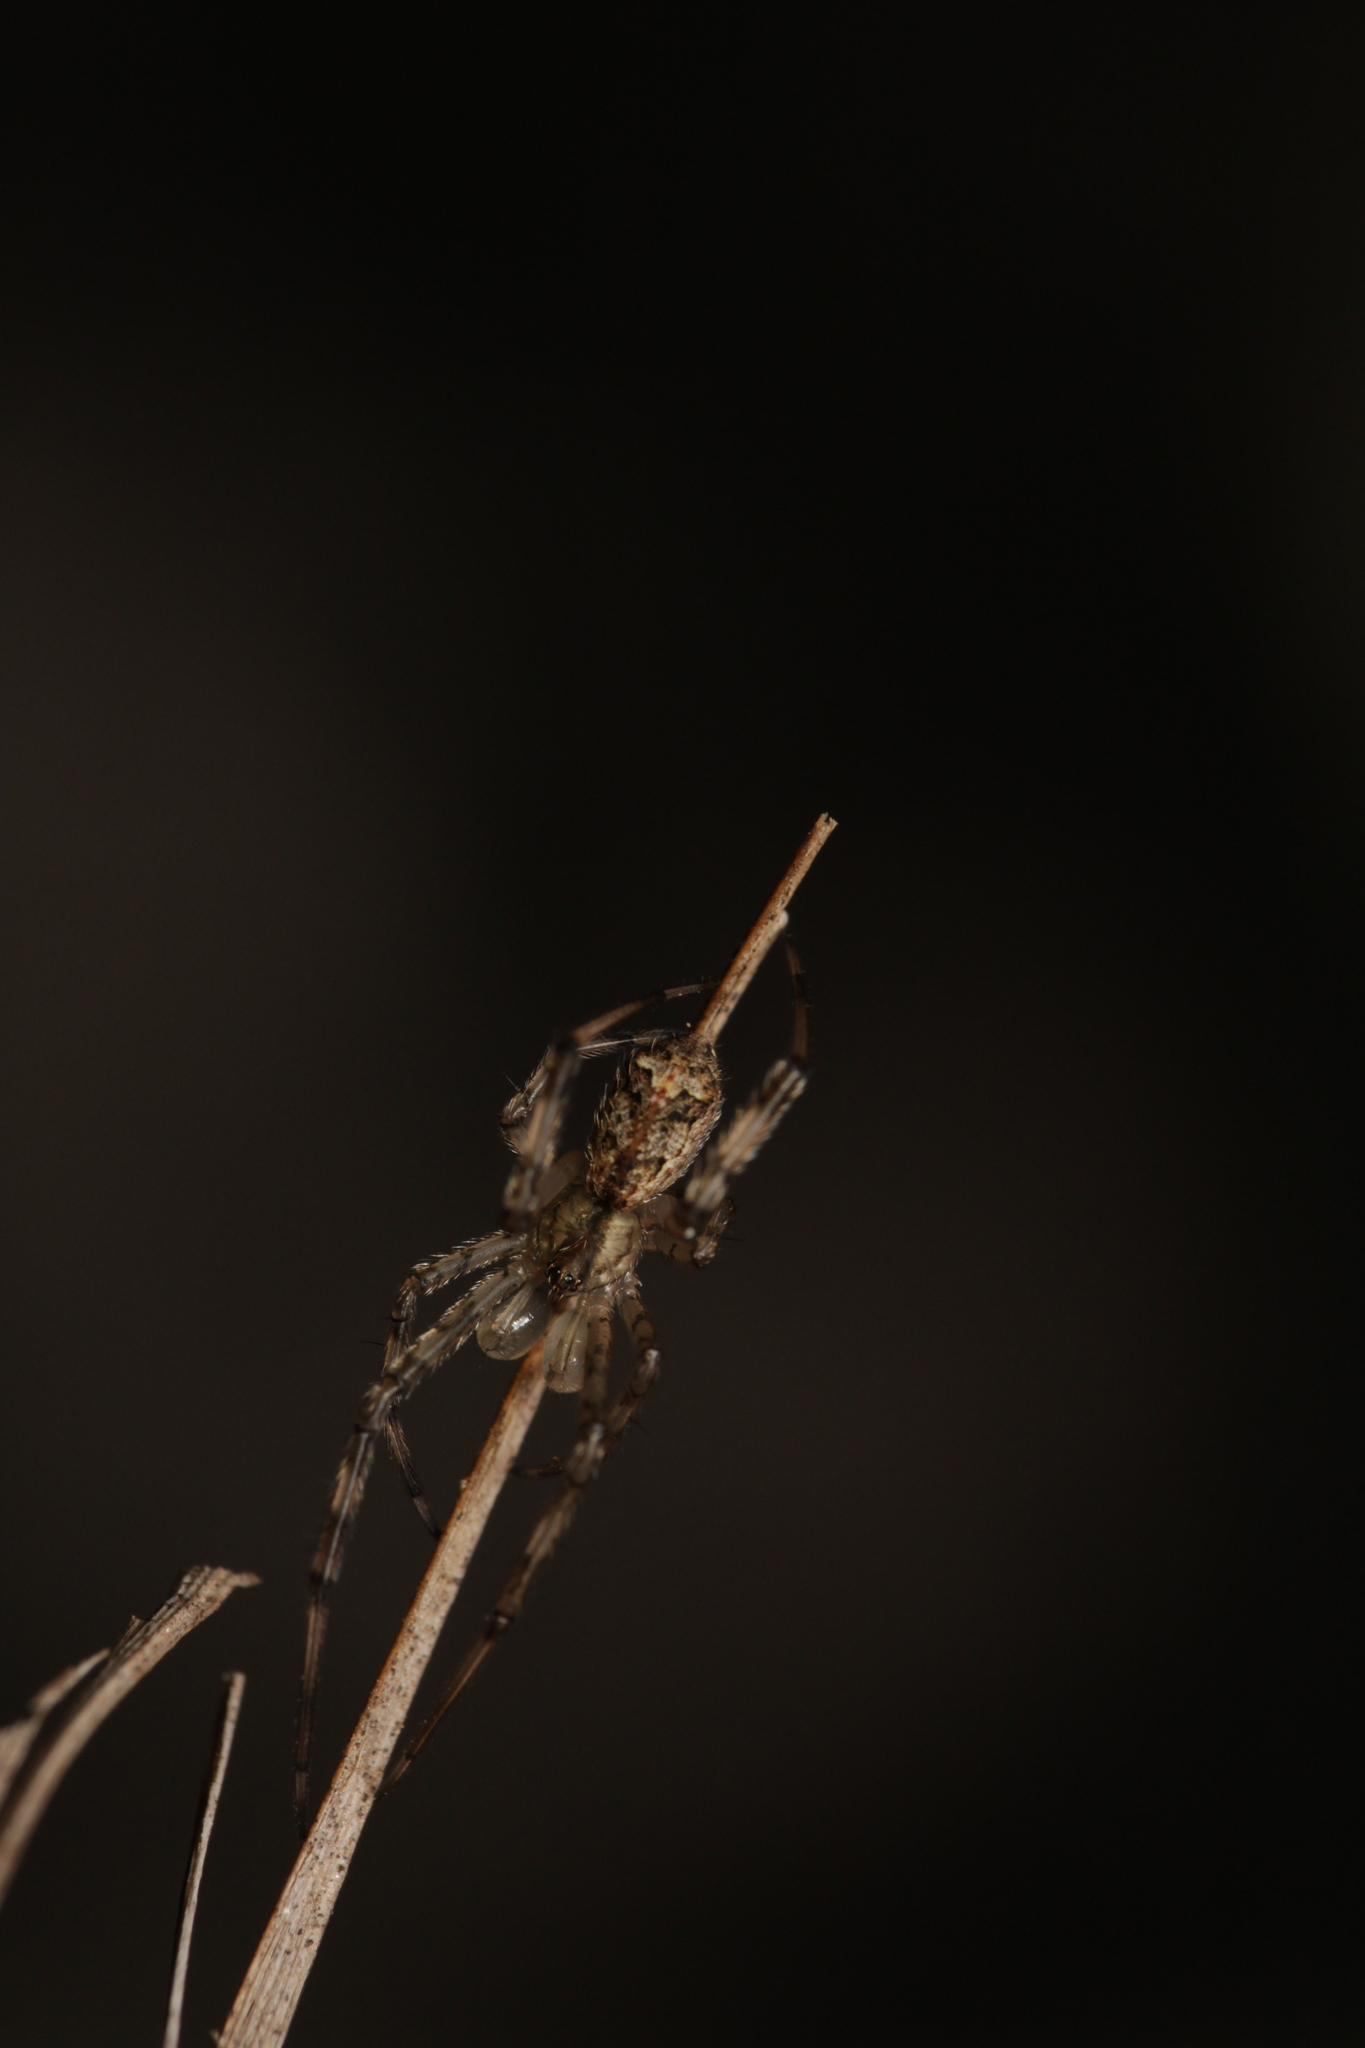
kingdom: Animalia
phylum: Arthropoda
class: Arachnida
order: Araneae
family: Theridiidae
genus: Episinus
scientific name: Episinus maculipes
